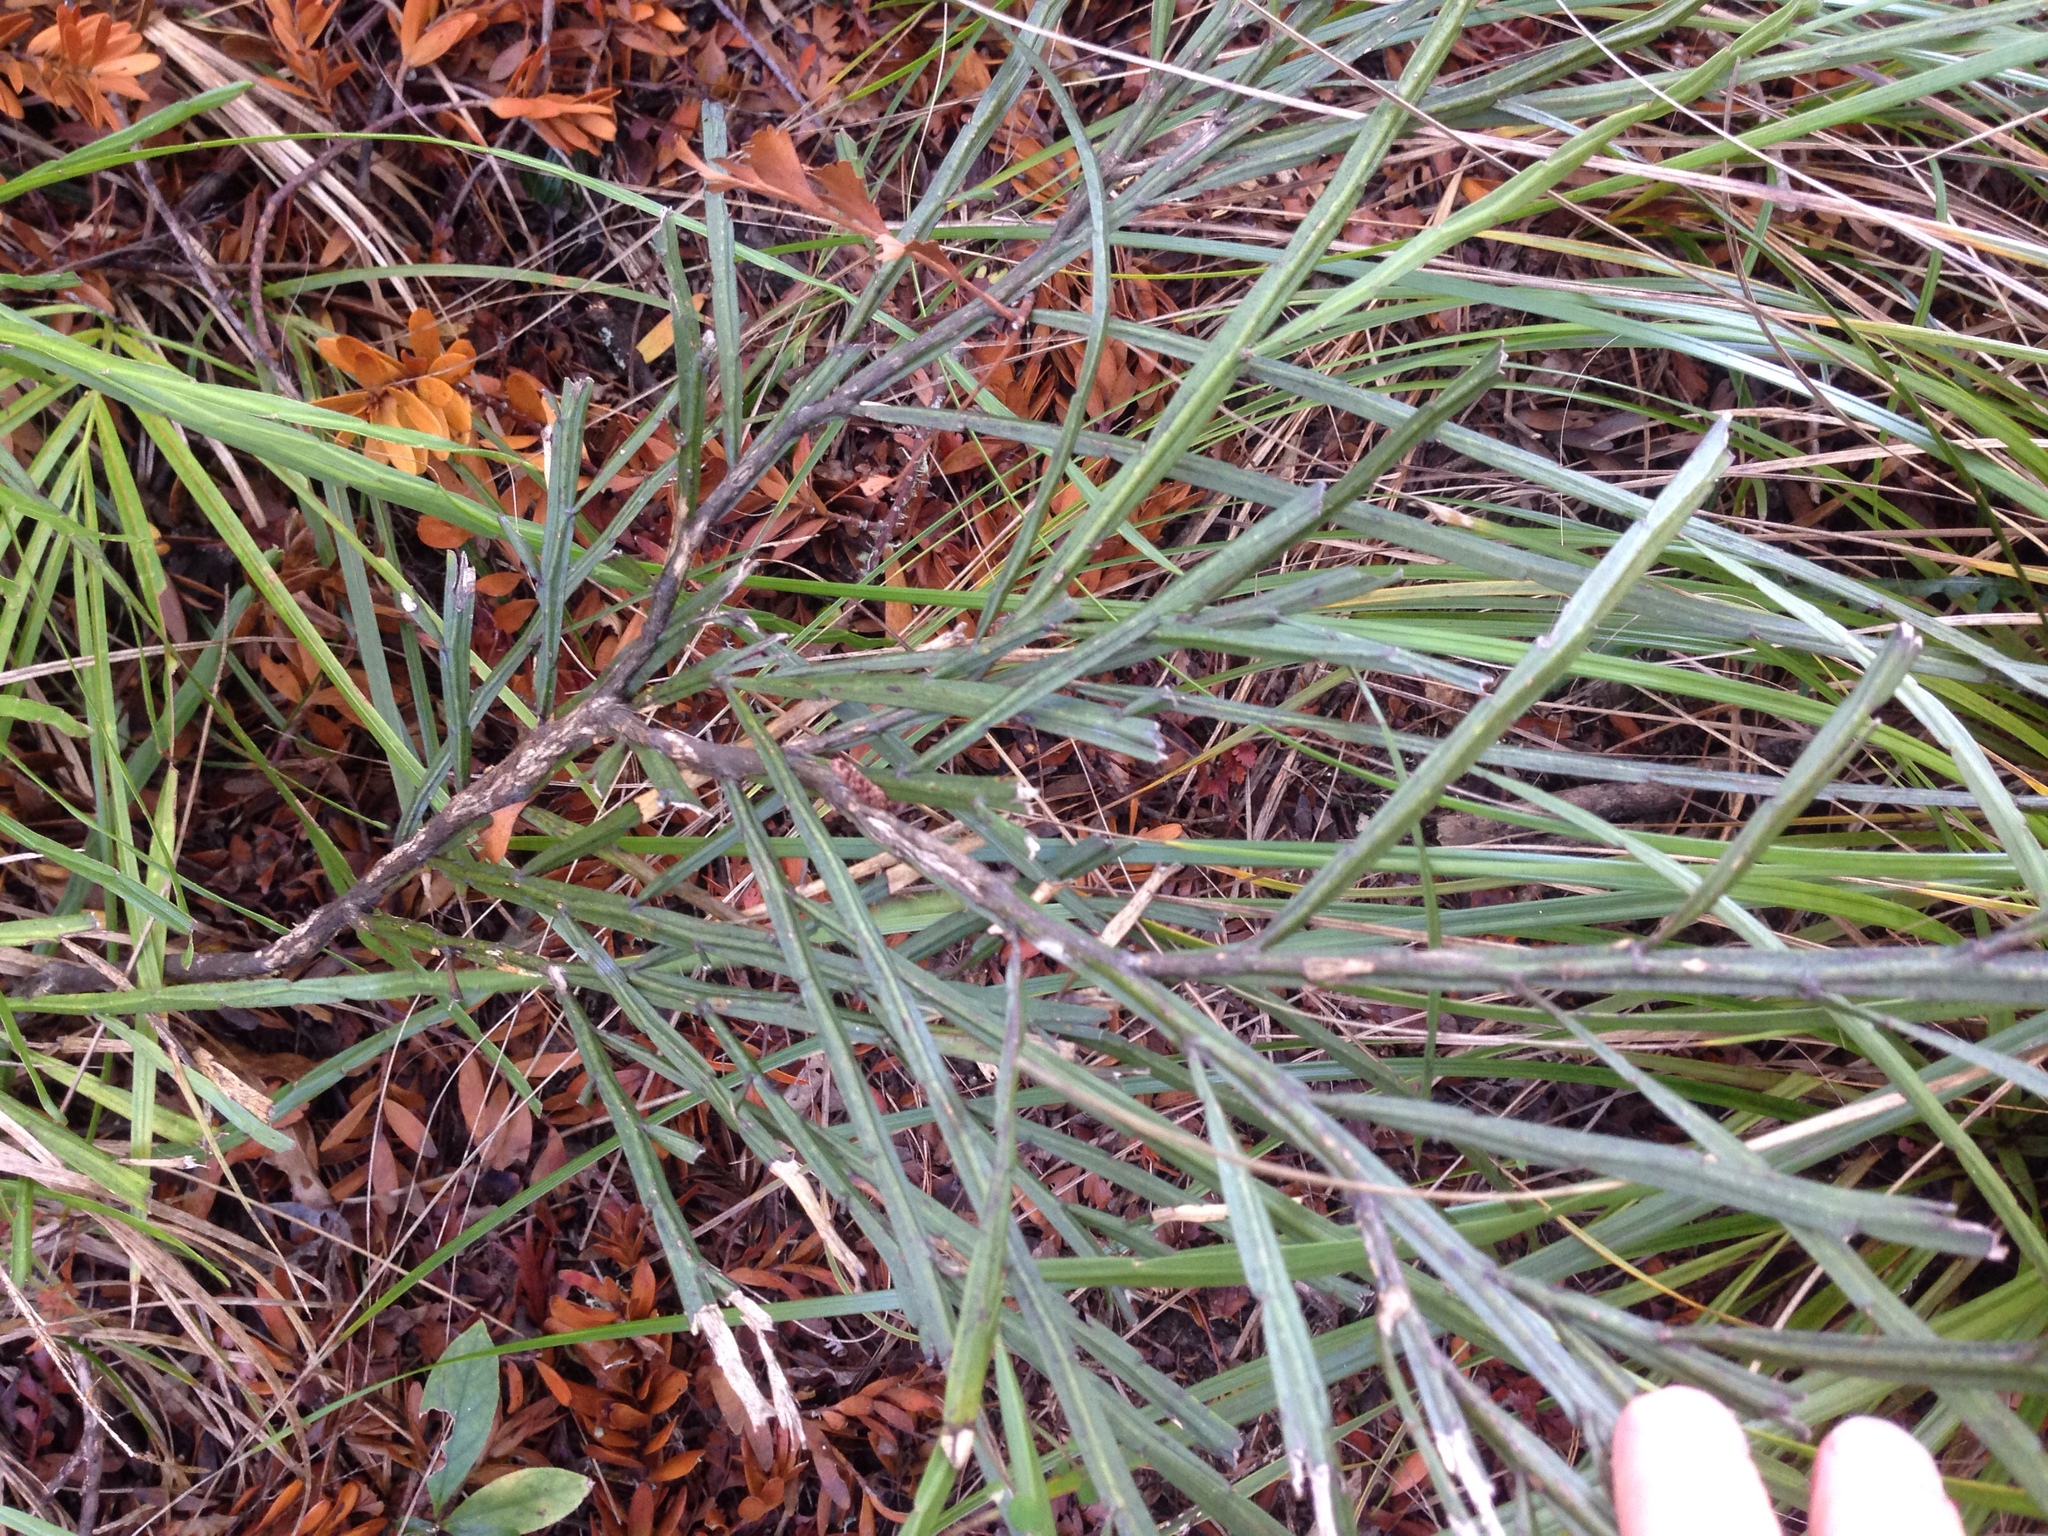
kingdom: Plantae
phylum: Tracheophyta
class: Magnoliopsida
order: Fabales
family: Fabaceae
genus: Carmichaelia
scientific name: Carmichaelia australis
